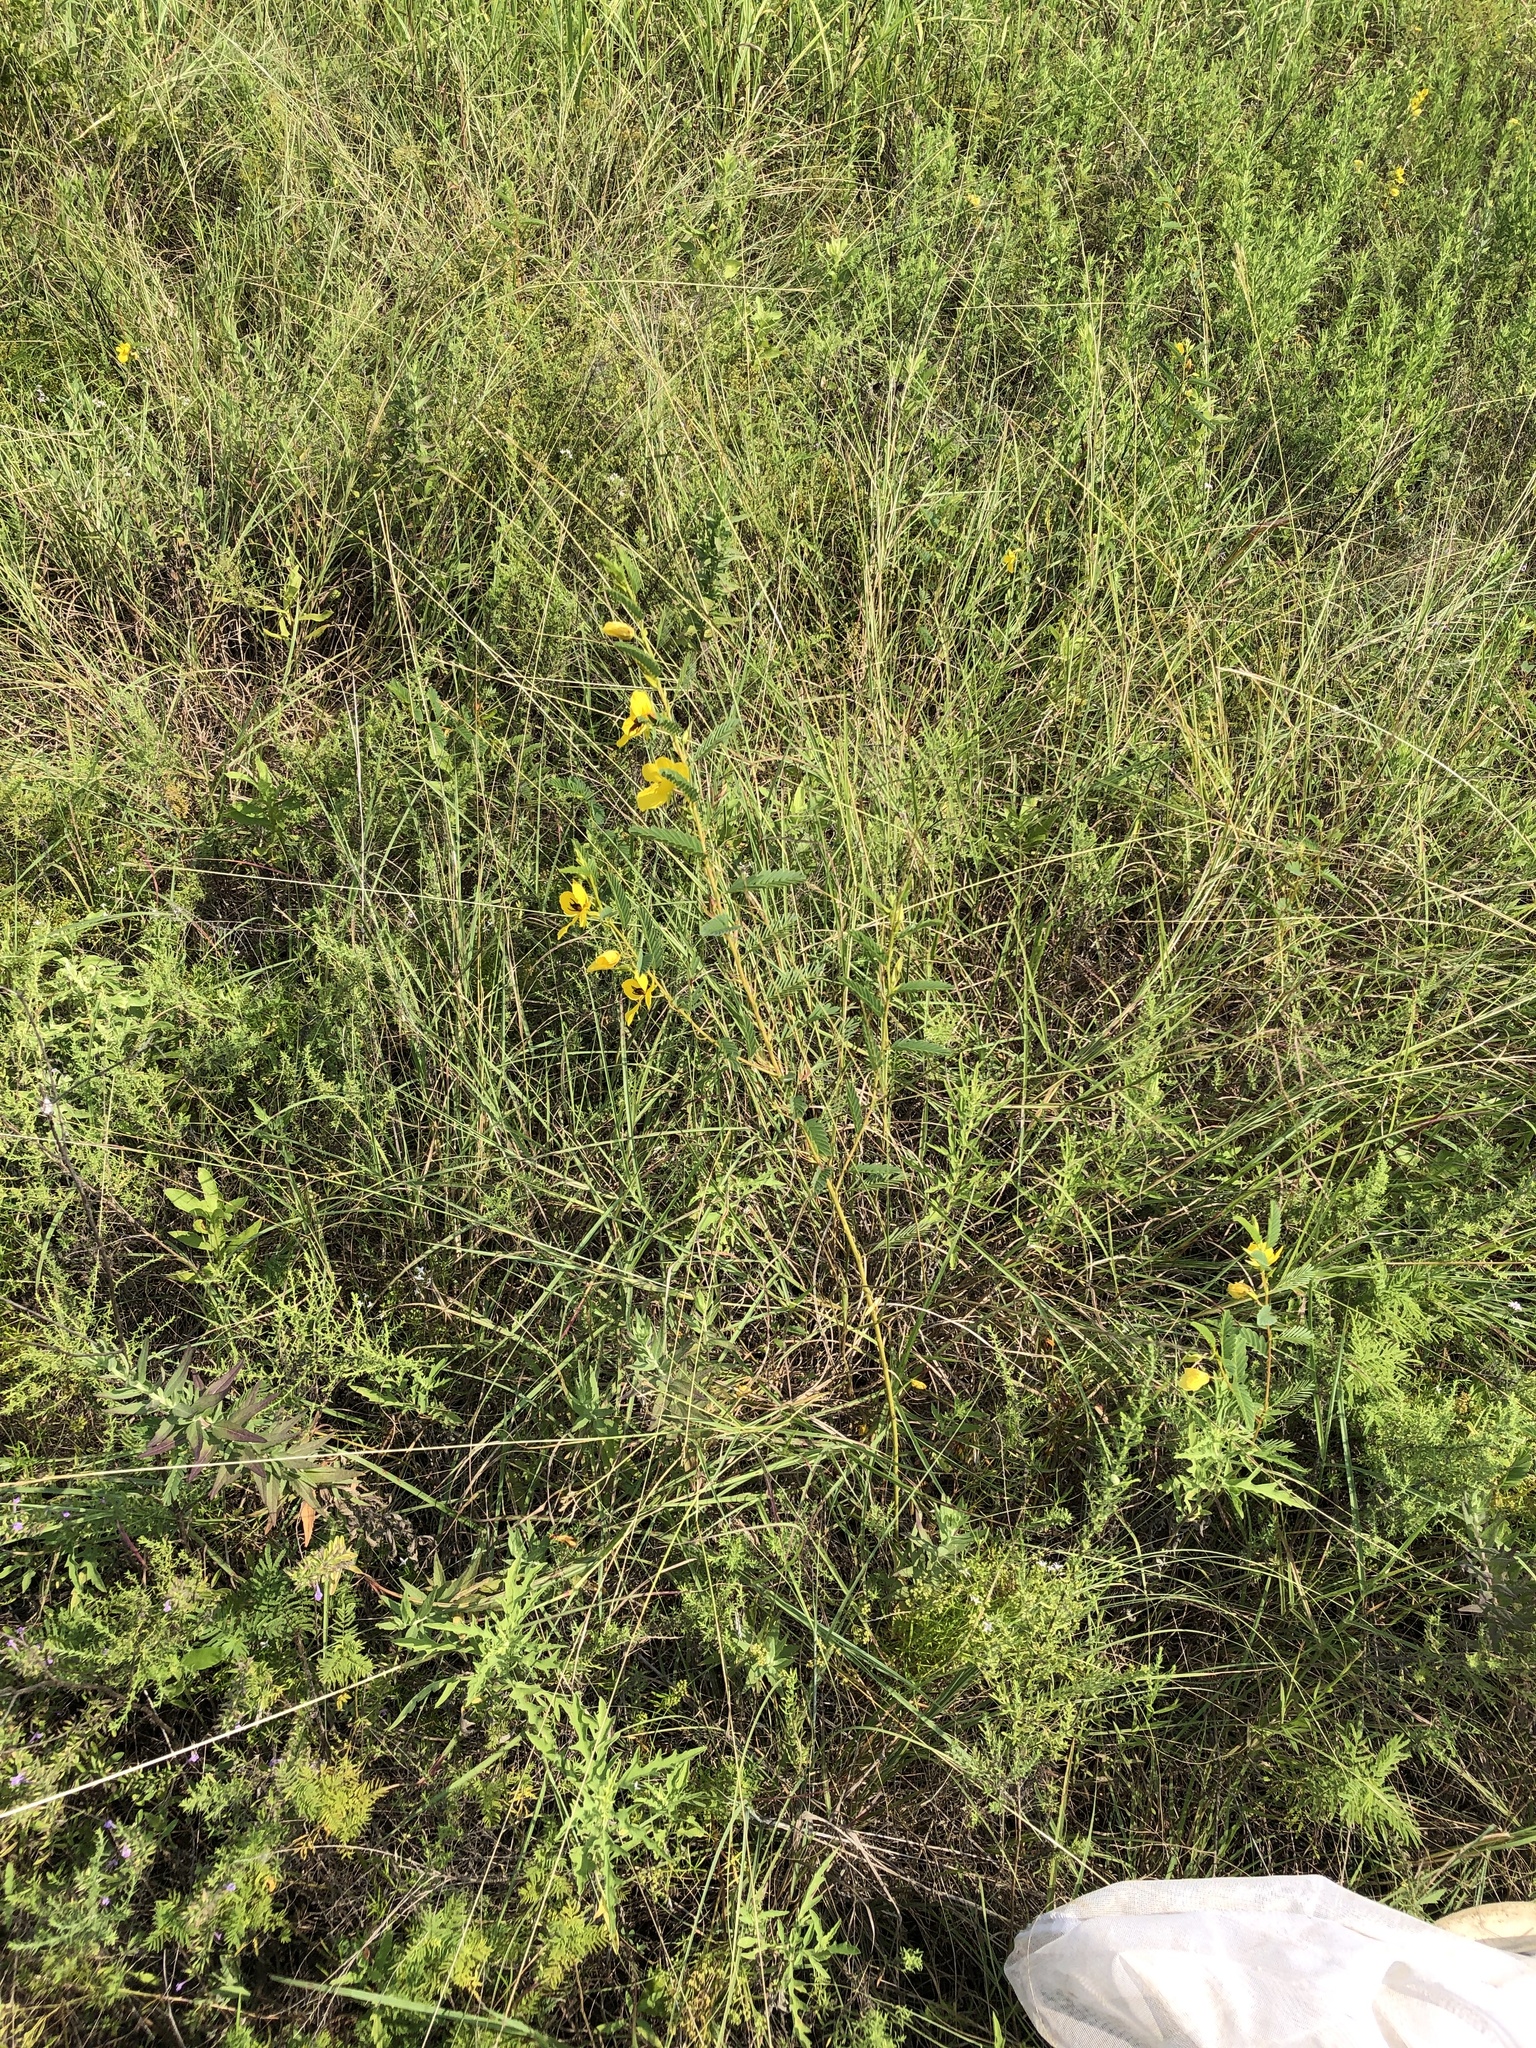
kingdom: Plantae
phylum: Tracheophyta
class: Magnoliopsida
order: Fabales
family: Fabaceae
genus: Chamaecrista
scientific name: Chamaecrista fasciculata
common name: Golden cassia
